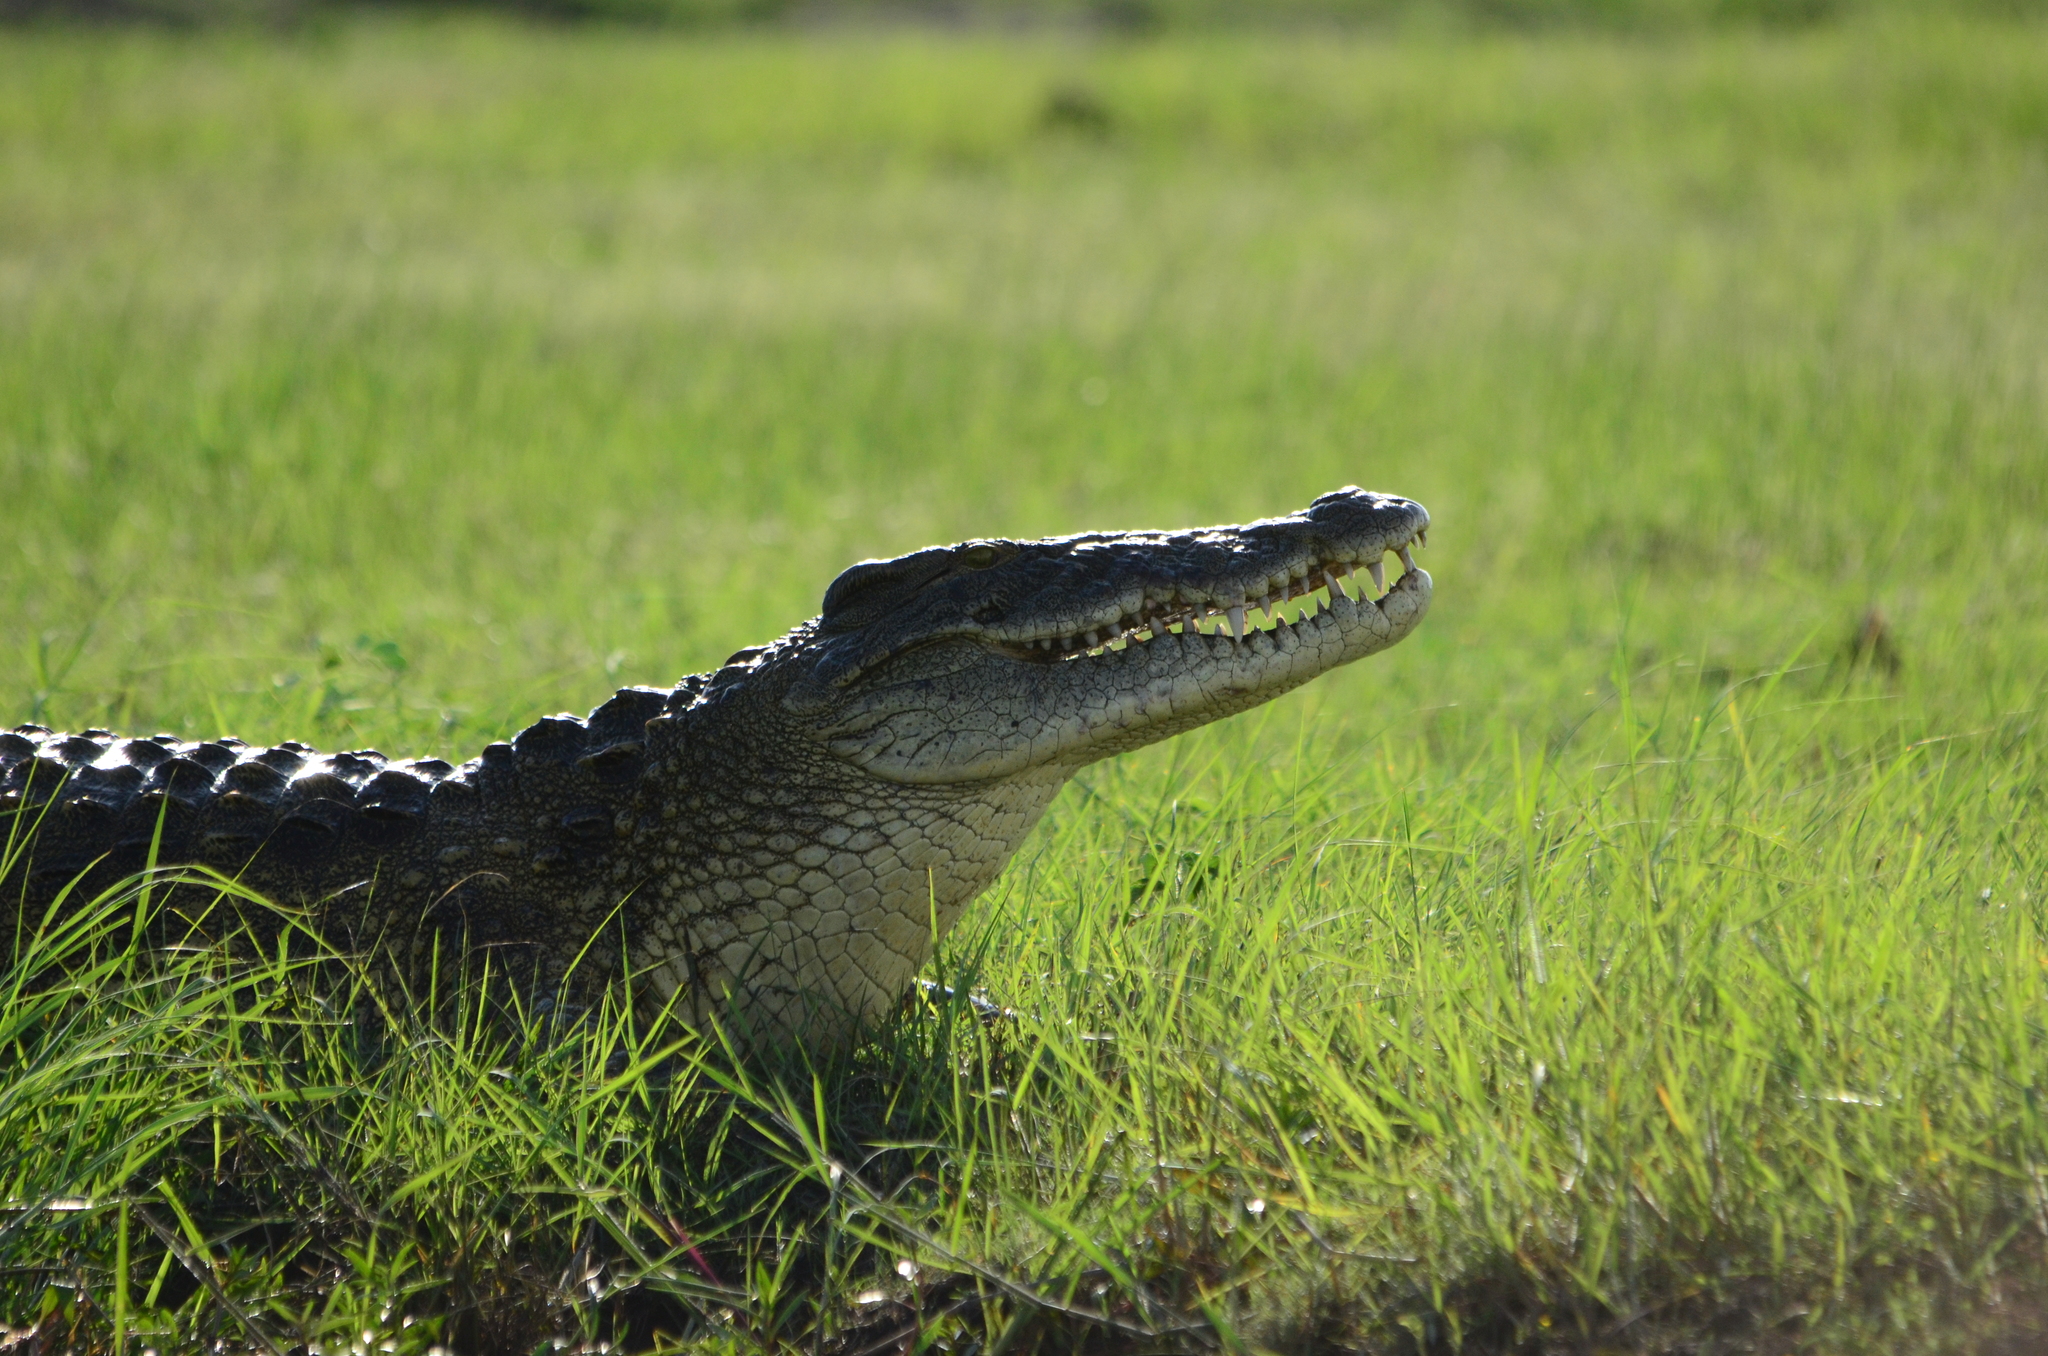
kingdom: Animalia
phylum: Chordata
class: Crocodylia
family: Crocodylidae
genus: Crocodylus
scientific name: Crocodylus niloticus
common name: Nile crocodile
